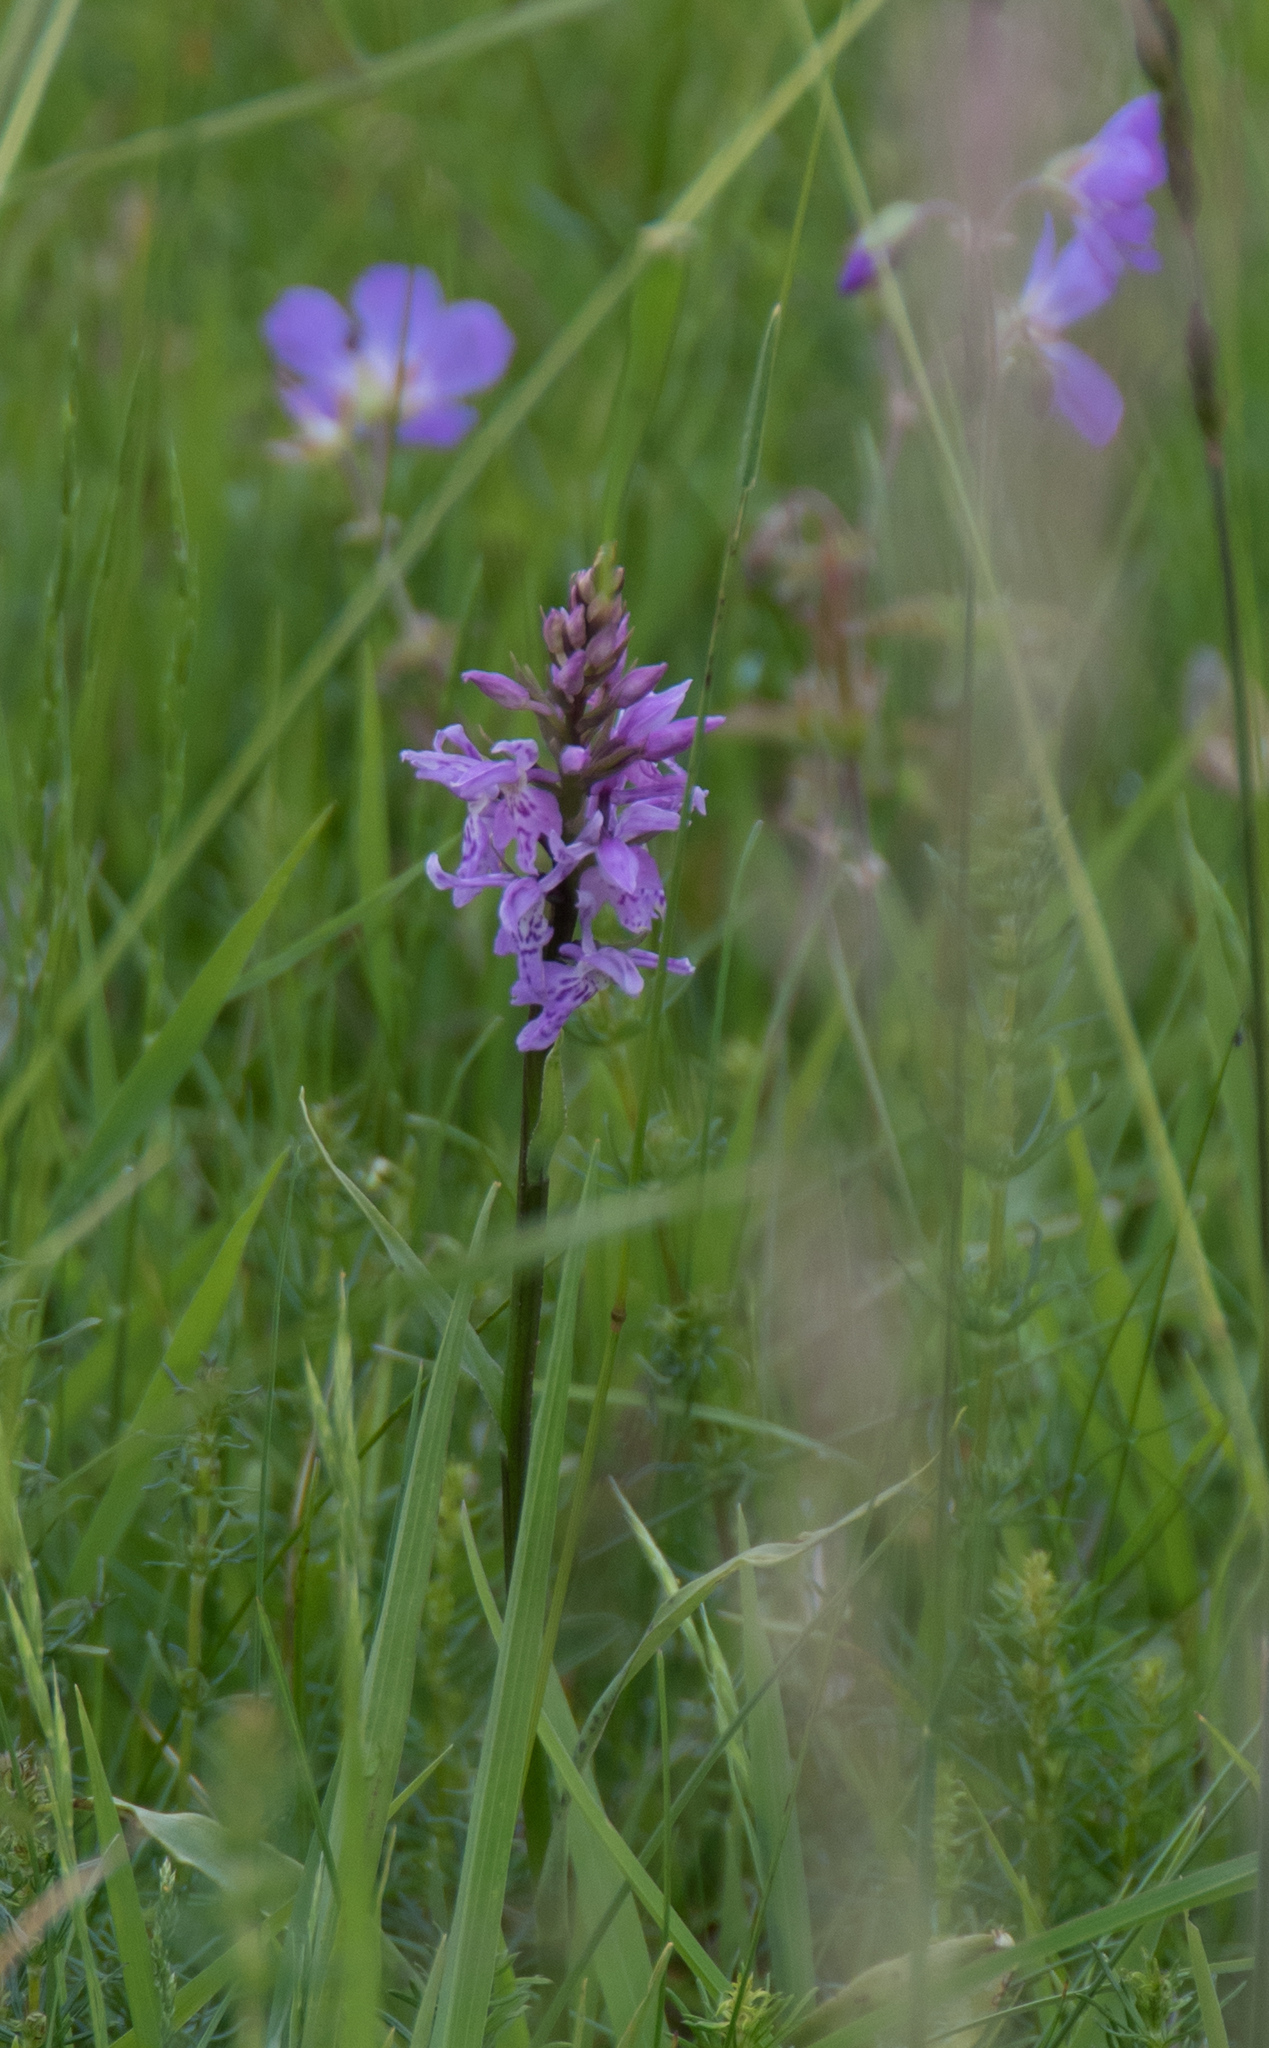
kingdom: Plantae
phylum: Tracheophyta
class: Liliopsida
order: Asparagales
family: Orchidaceae
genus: Dactylorhiza
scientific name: Dactylorhiza maculata
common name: Heath spotted-orchid
